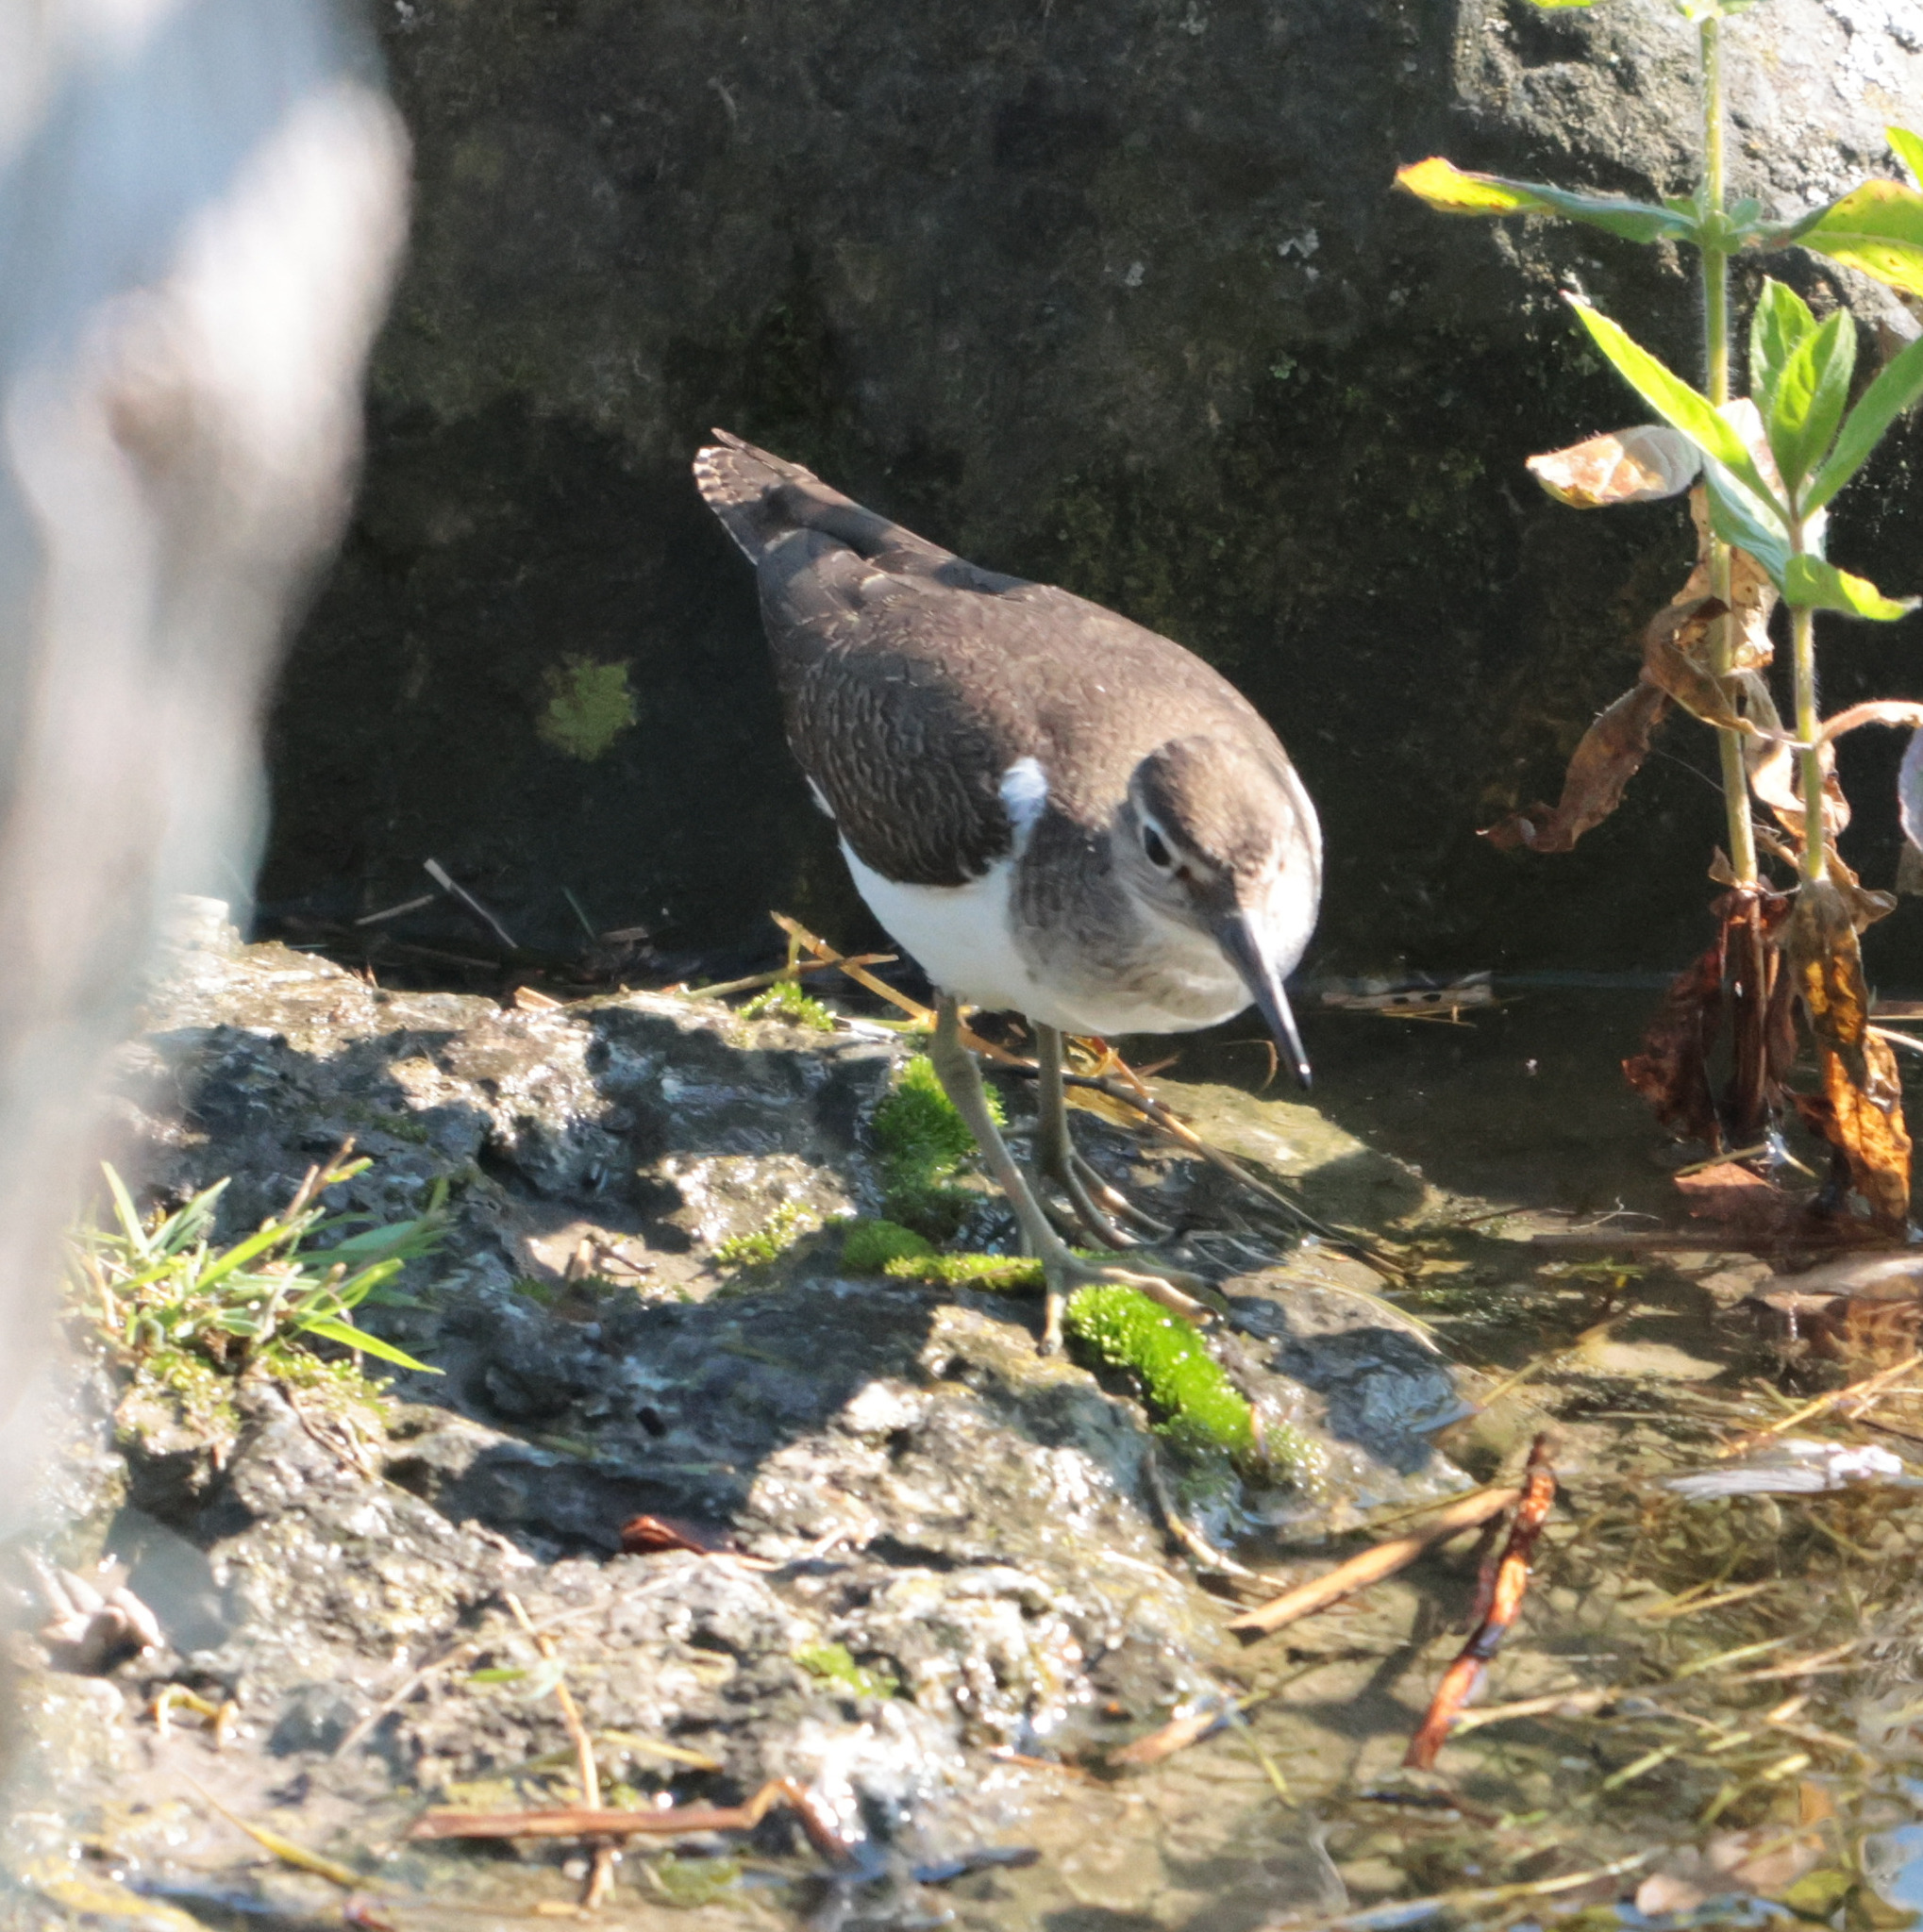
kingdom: Animalia
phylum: Chordata
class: Aves
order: Charadriiformes
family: Scolopacidae
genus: Actitis
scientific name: Actitis hypoleucos
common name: Common sandpiper
